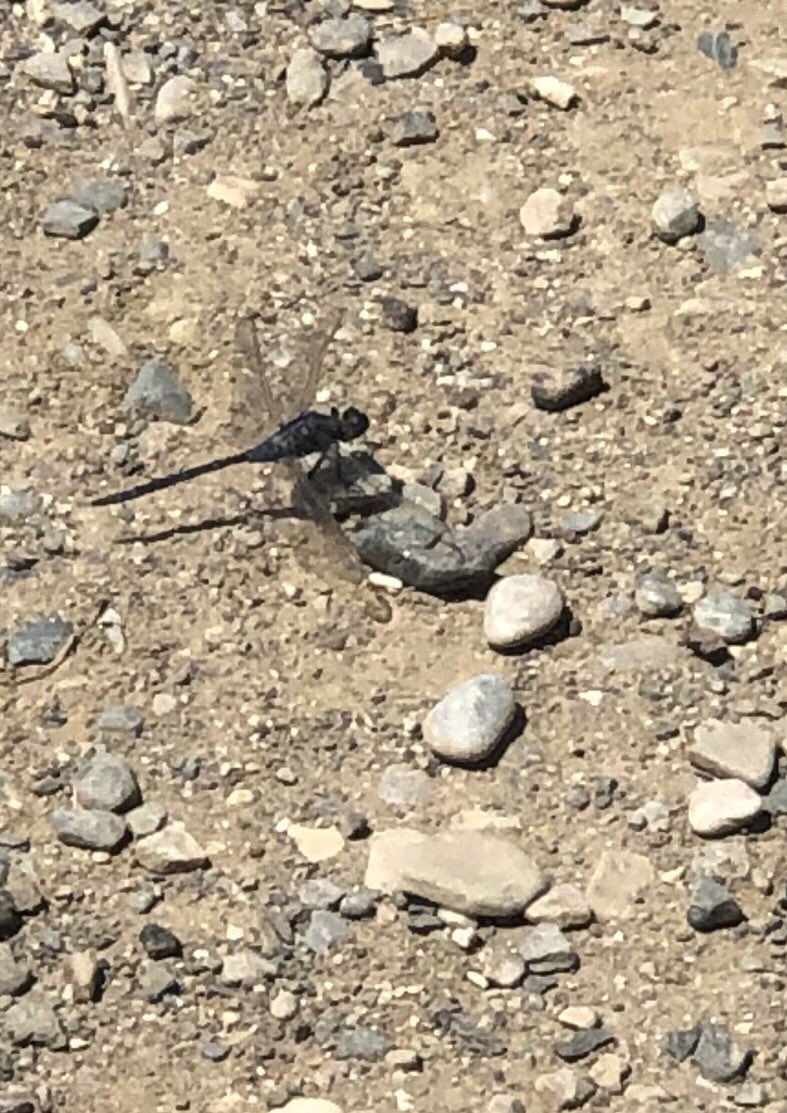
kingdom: Animalia
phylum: Arthropoda
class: Insecta
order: Odonata
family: Libellulidae
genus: Orthetrum
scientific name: Orthetrum trinacria
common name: Long skimmer
